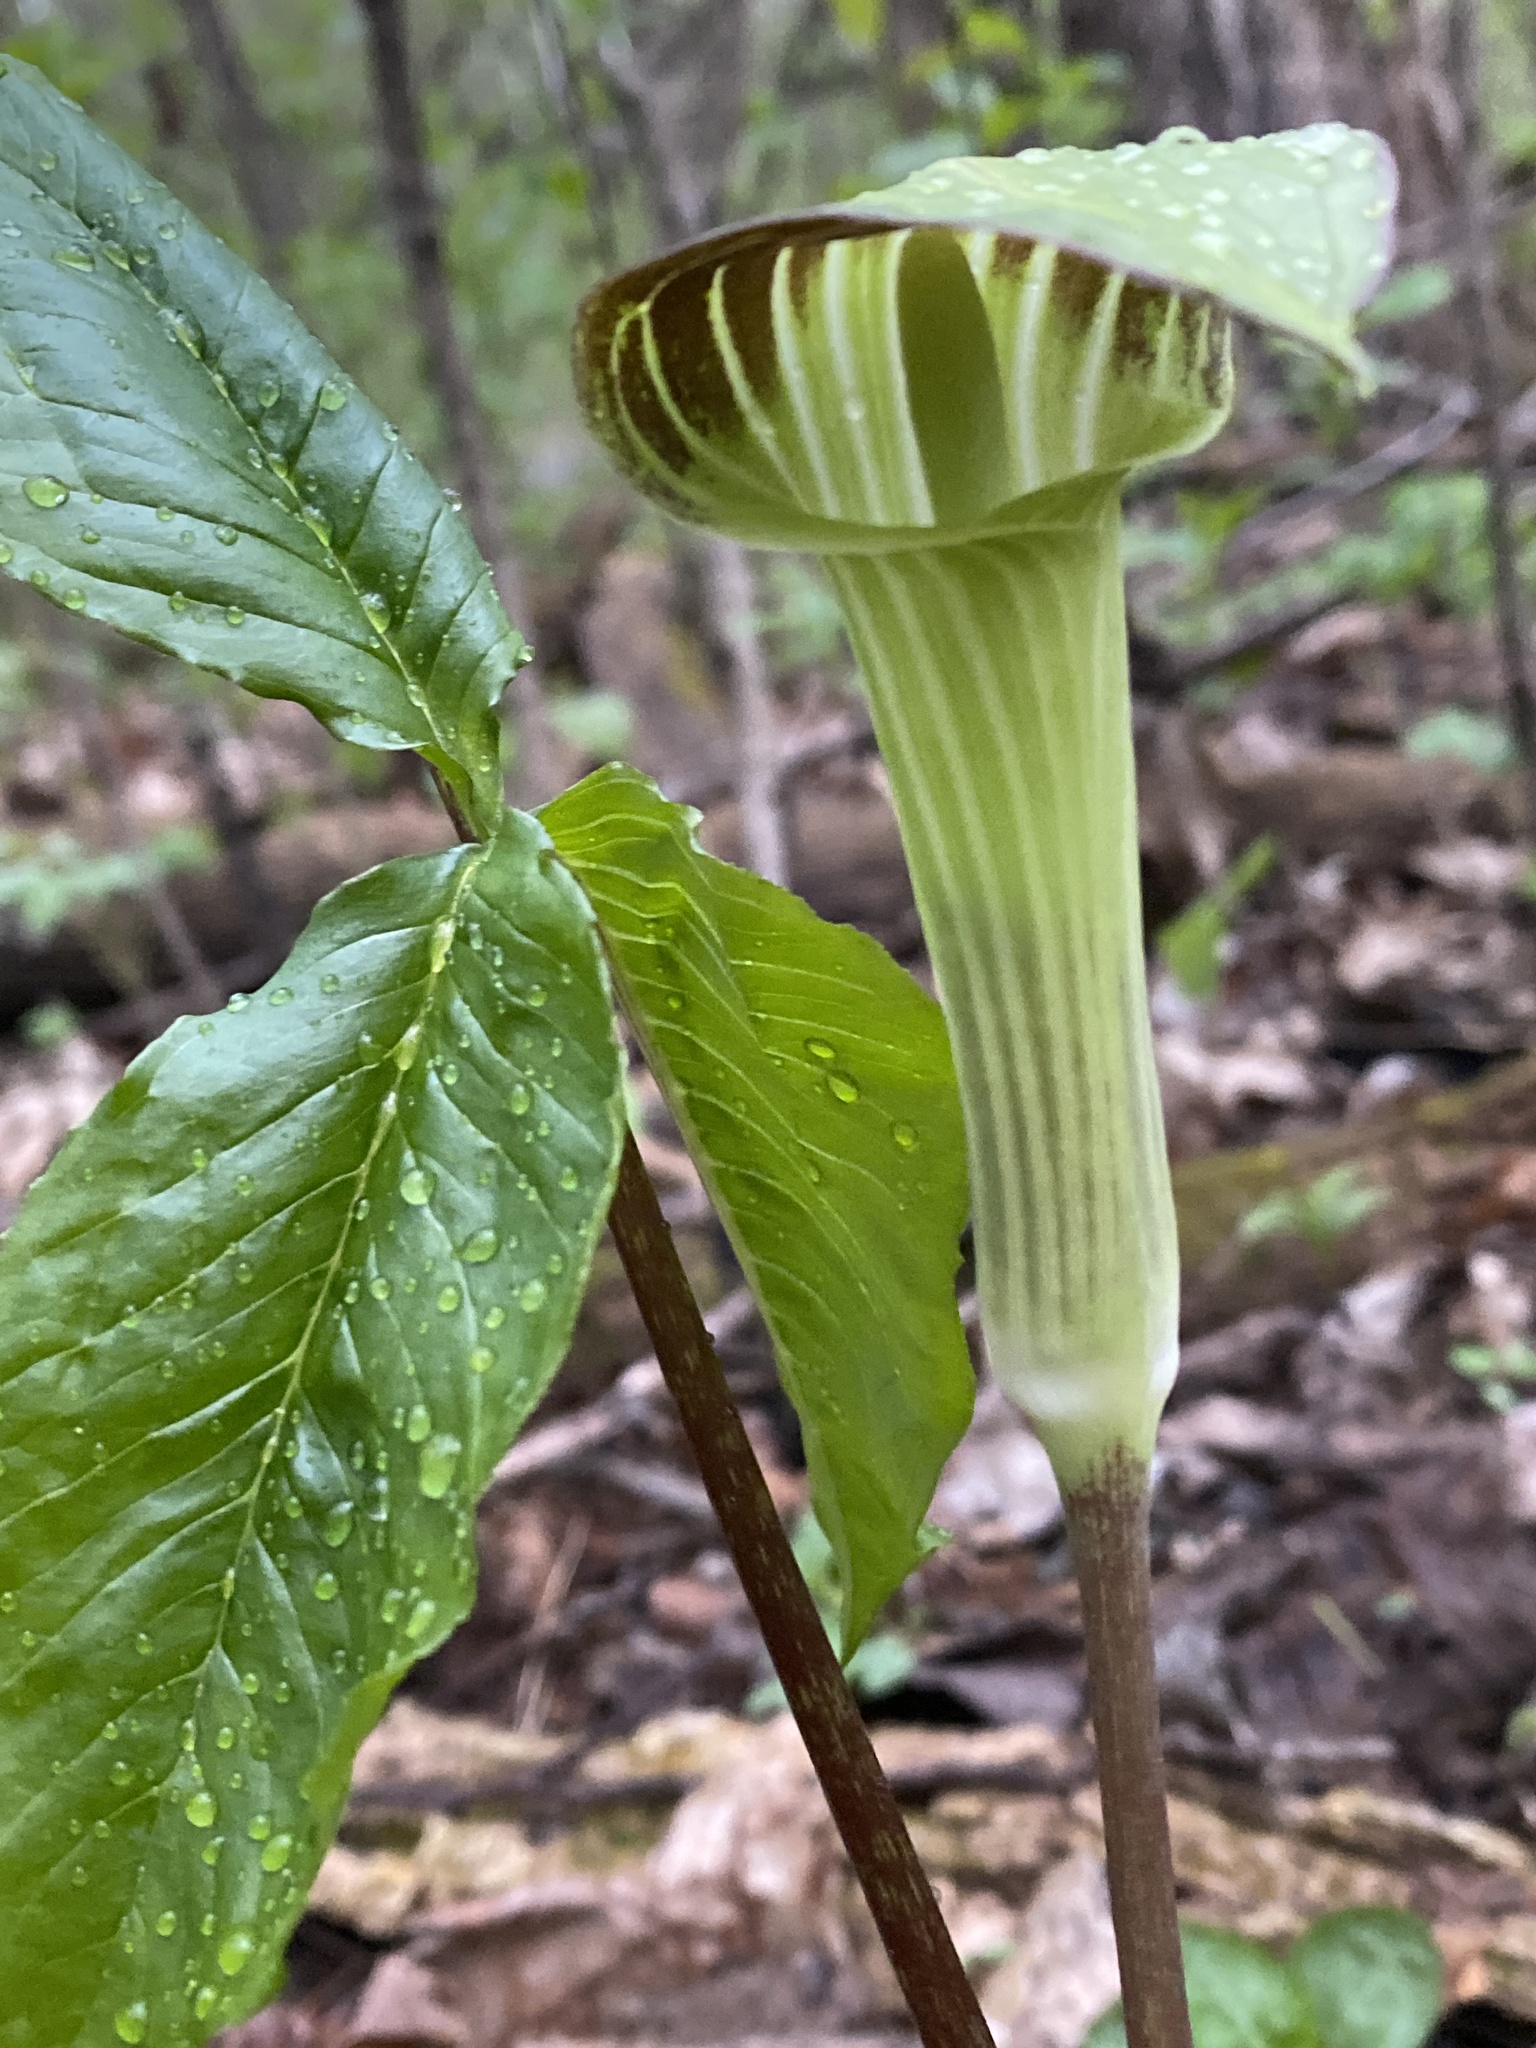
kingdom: Plantae
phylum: Tracheophyta
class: Liliopsida
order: Alismatales
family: Araceae
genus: Arisaema
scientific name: Arisaema triphyllum
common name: Jack-in-the-pulpit
